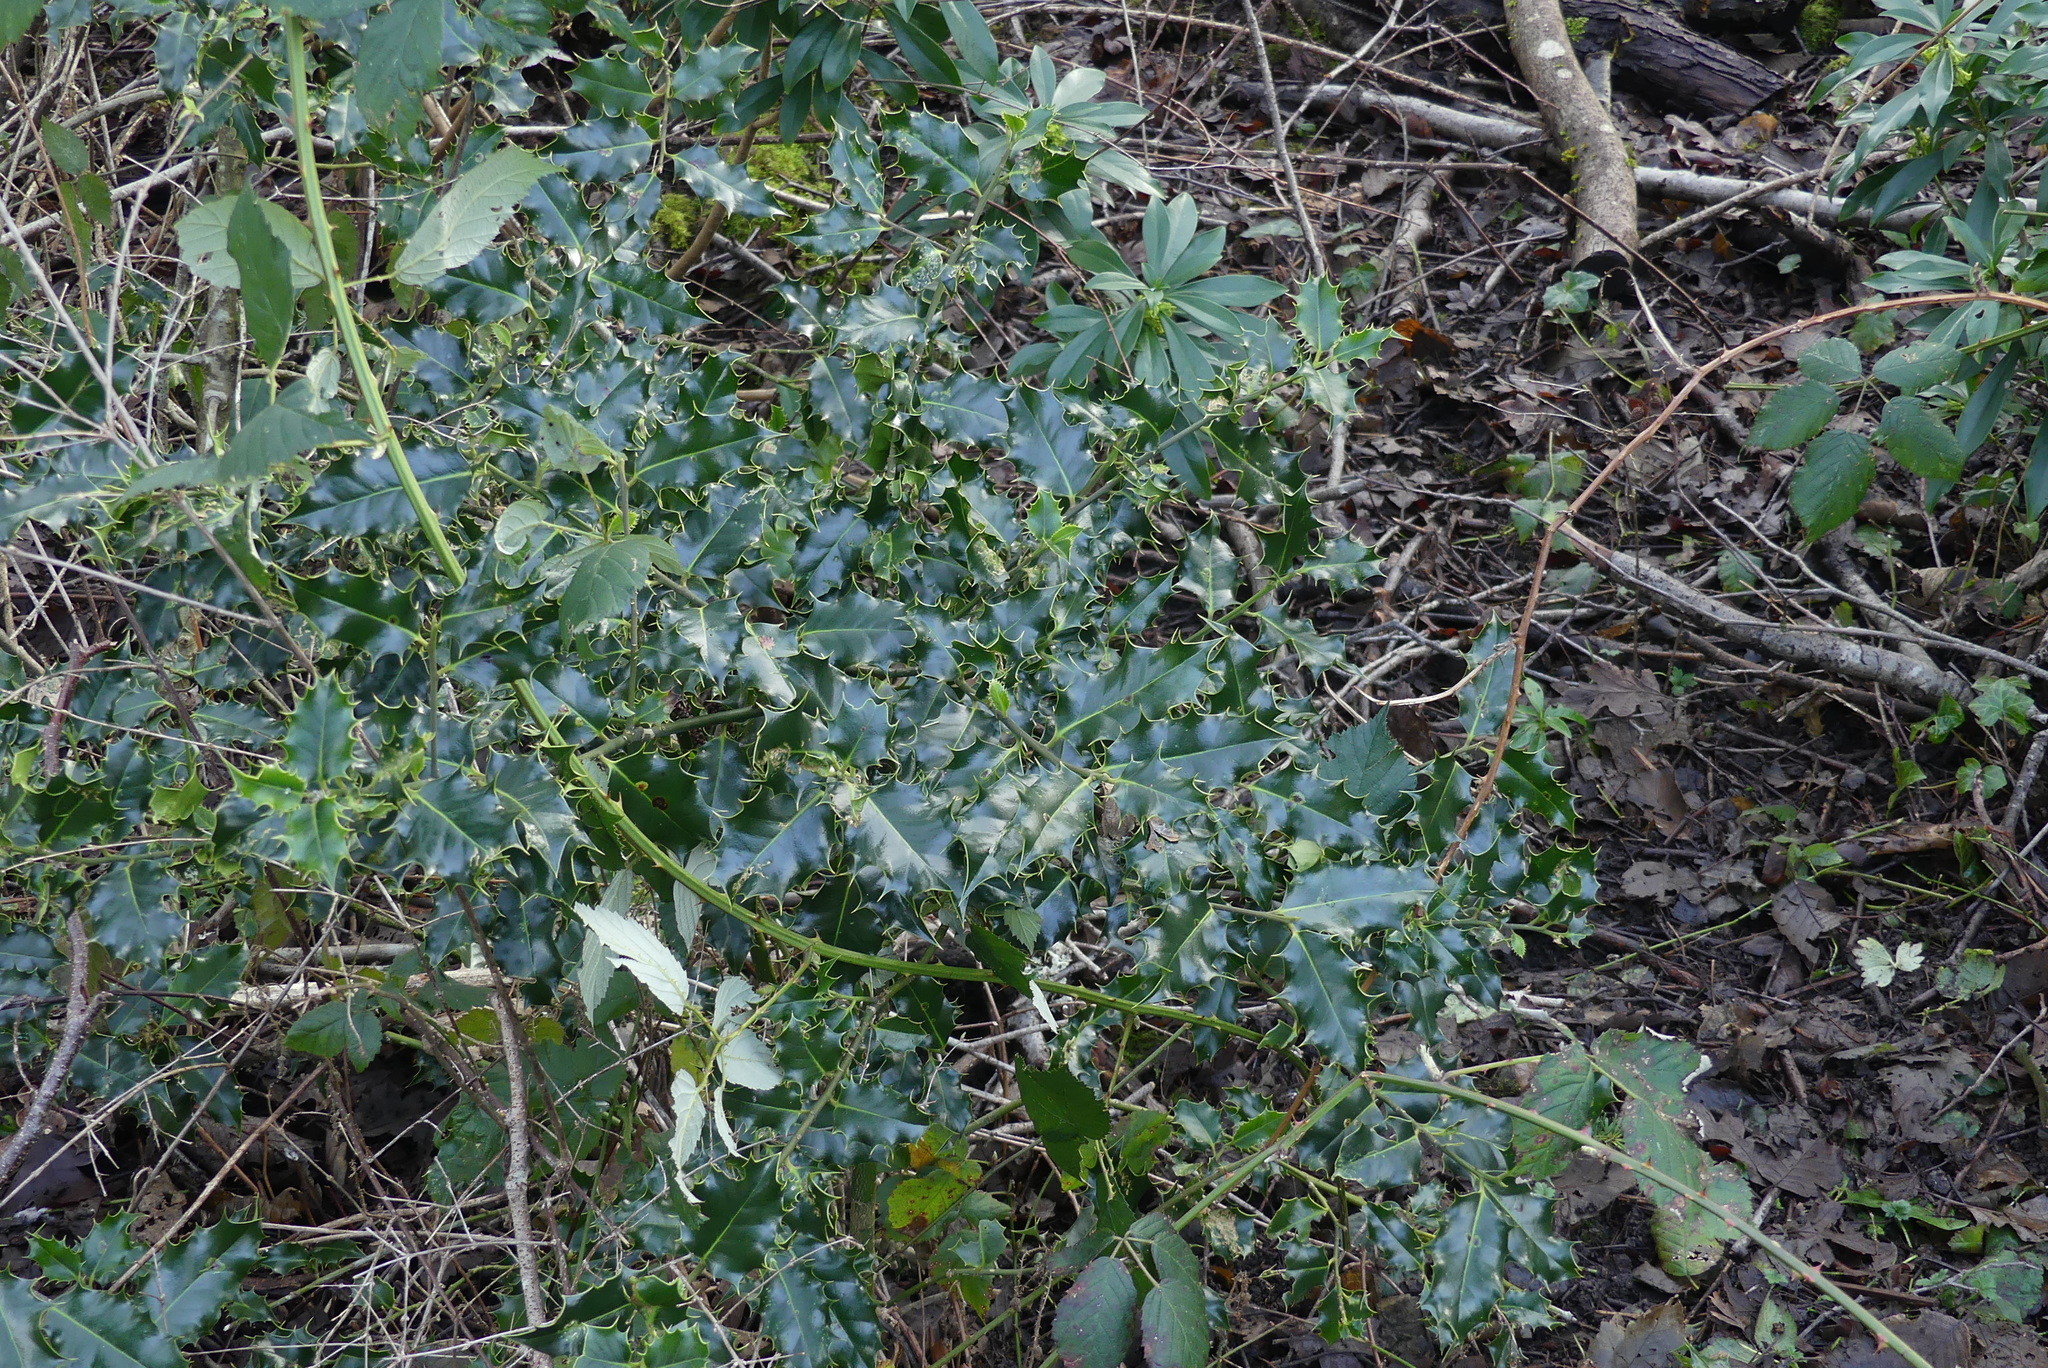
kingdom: Plantae
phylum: Tracheophyta
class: Magnoliopsida
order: Aquifoliales
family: Aquifoliaceae
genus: Ilex
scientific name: Ilex aquifolium
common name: English holly
